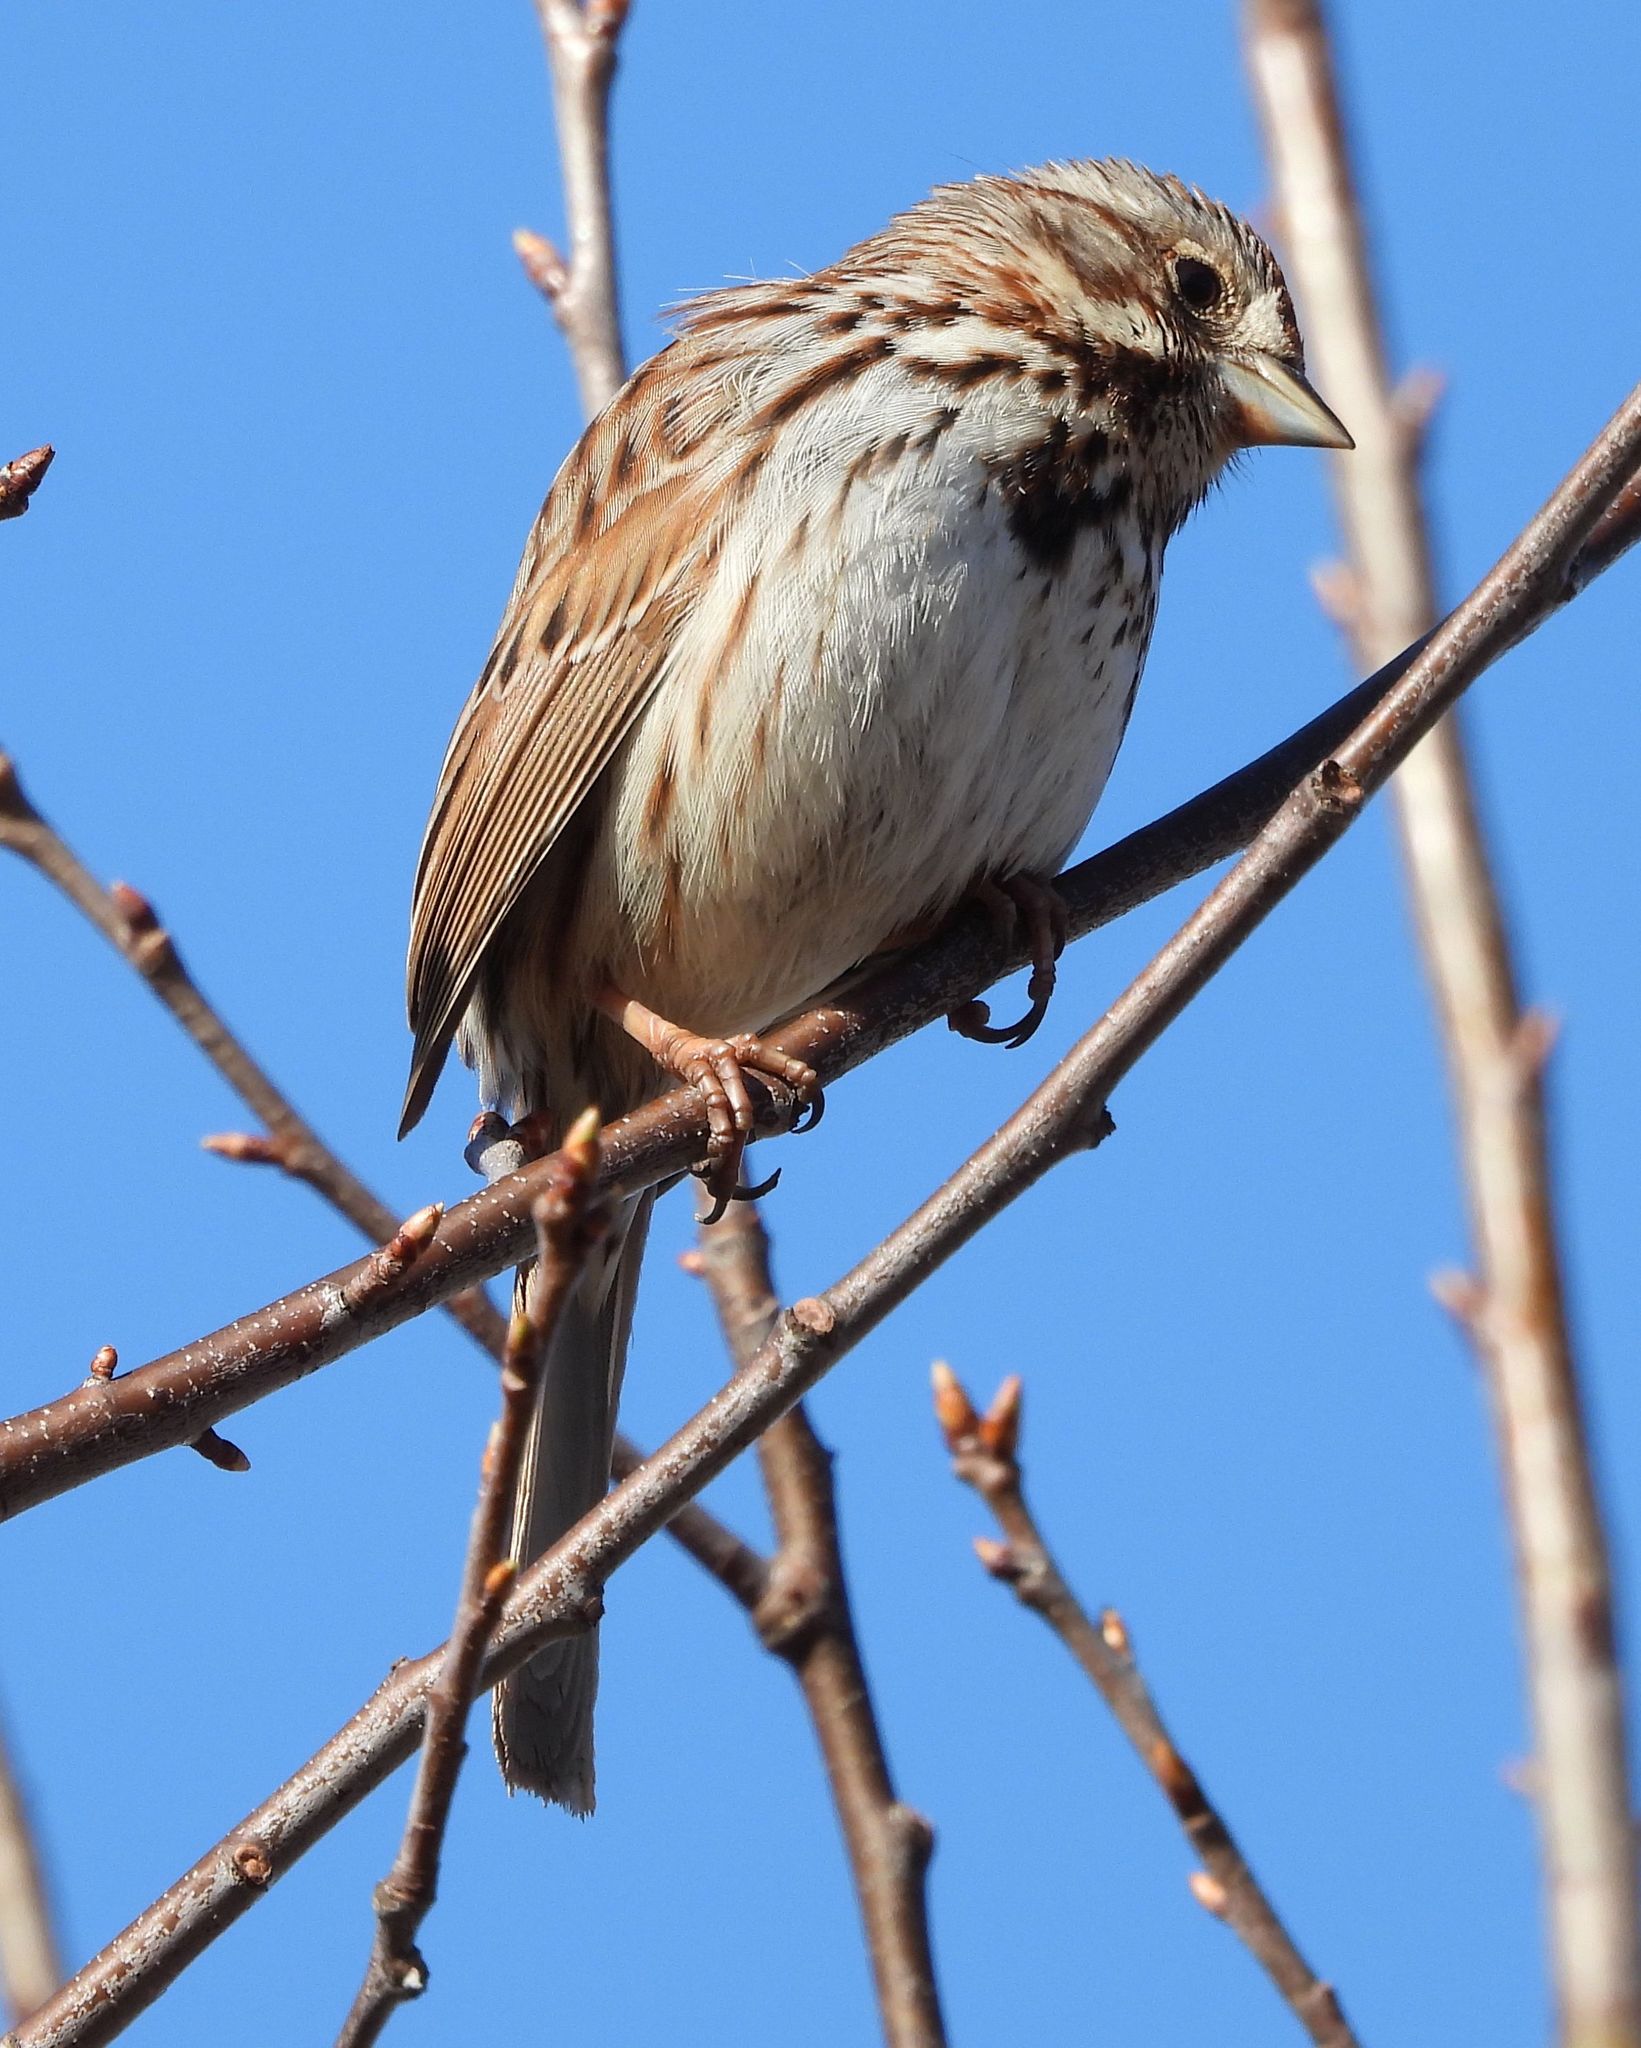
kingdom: Animalia
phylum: Chordata
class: Aves
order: Passeriformes
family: Passerellidae
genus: Melospiza
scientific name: Melospiza melodia
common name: Song sparrow
